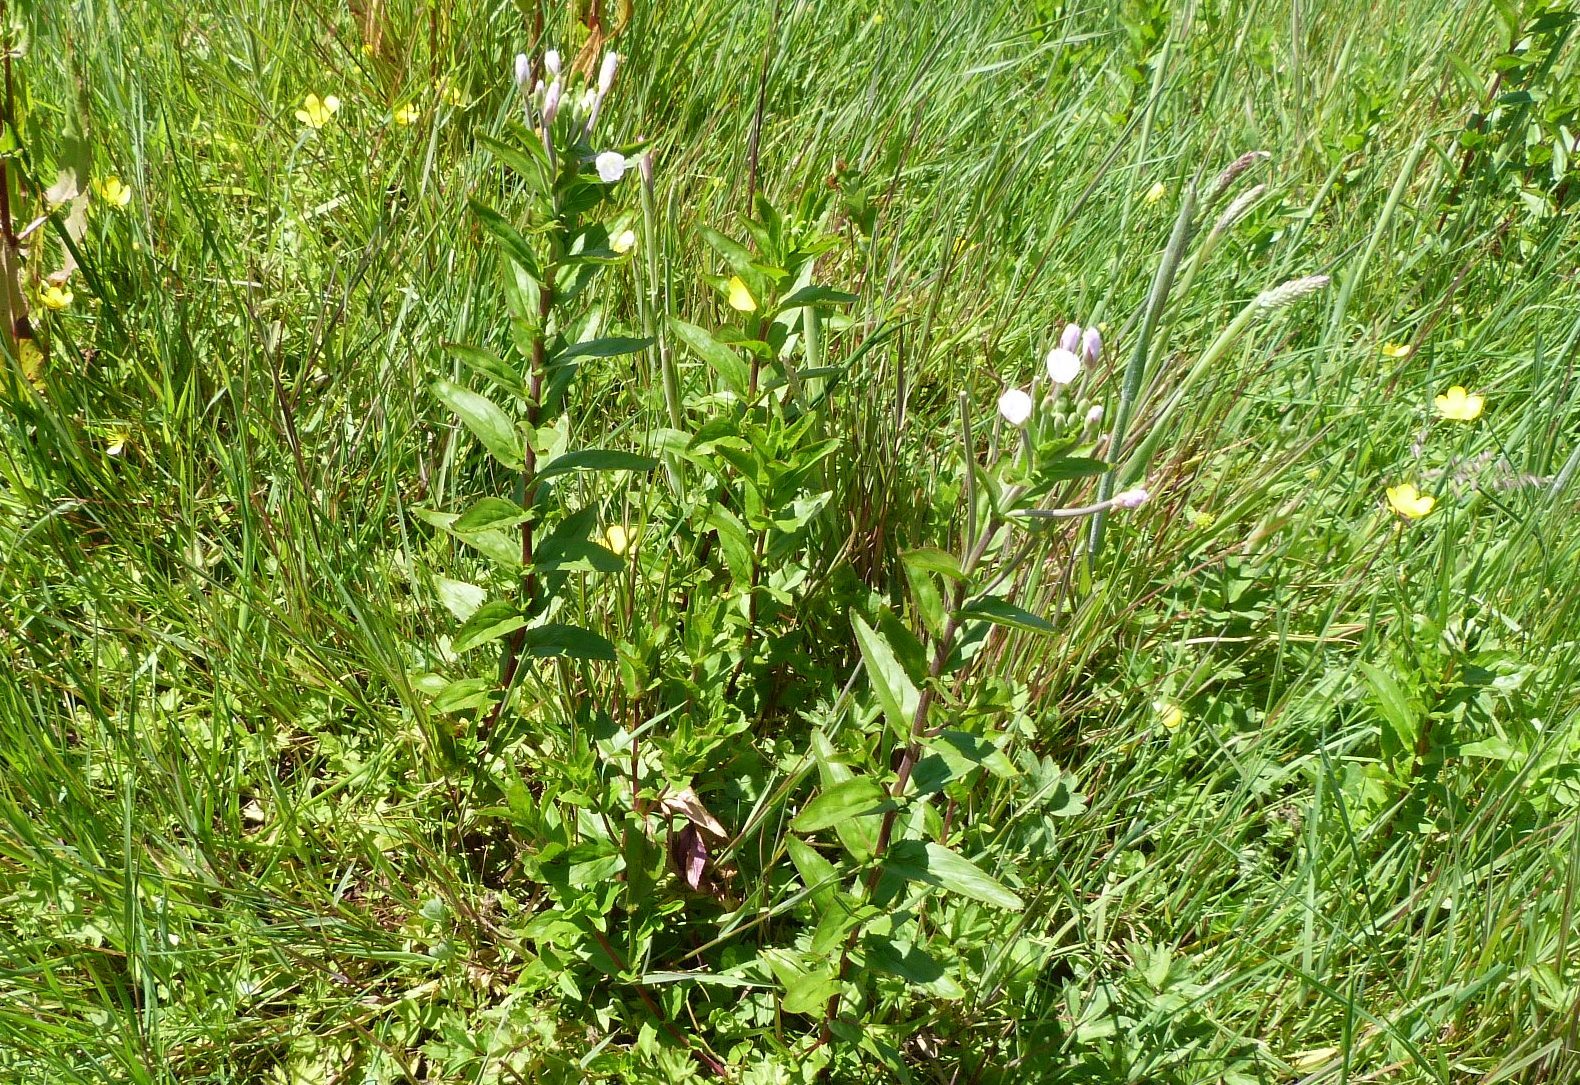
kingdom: Plantae
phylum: Tracheophyta
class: Magnoliopsida
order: Myrtales
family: Onagraceae
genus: Epilobium
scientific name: Epilobium billardiereanum
